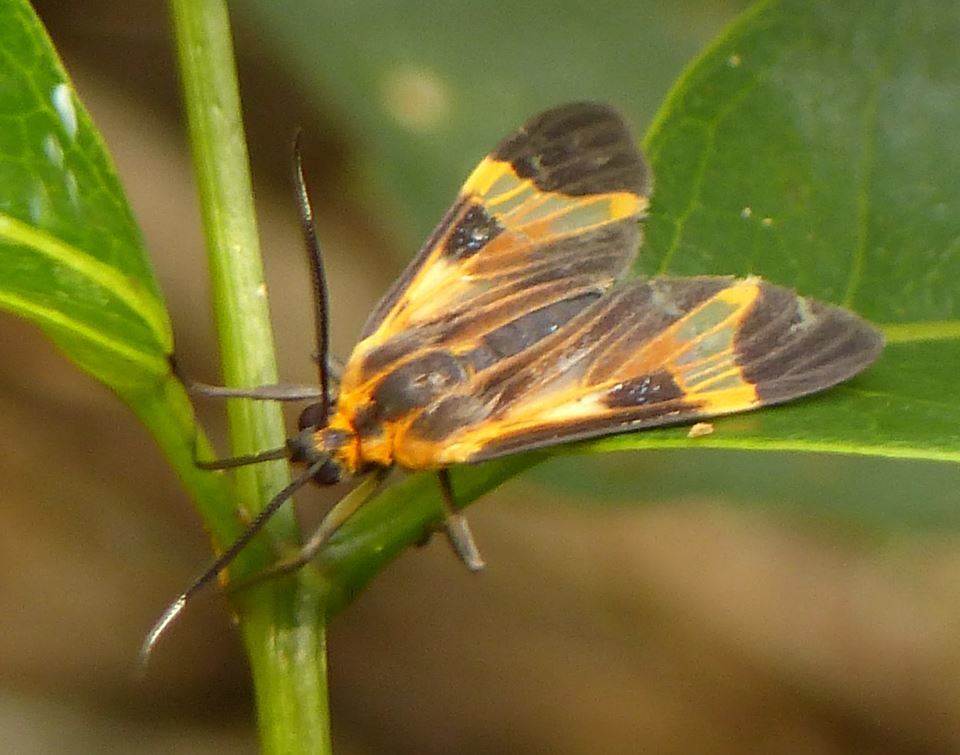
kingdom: Animalia
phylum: Arthropoda
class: Insecta
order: Lepidoptera
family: Erebidae
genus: Dycladia
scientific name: Dycladia lucetius
